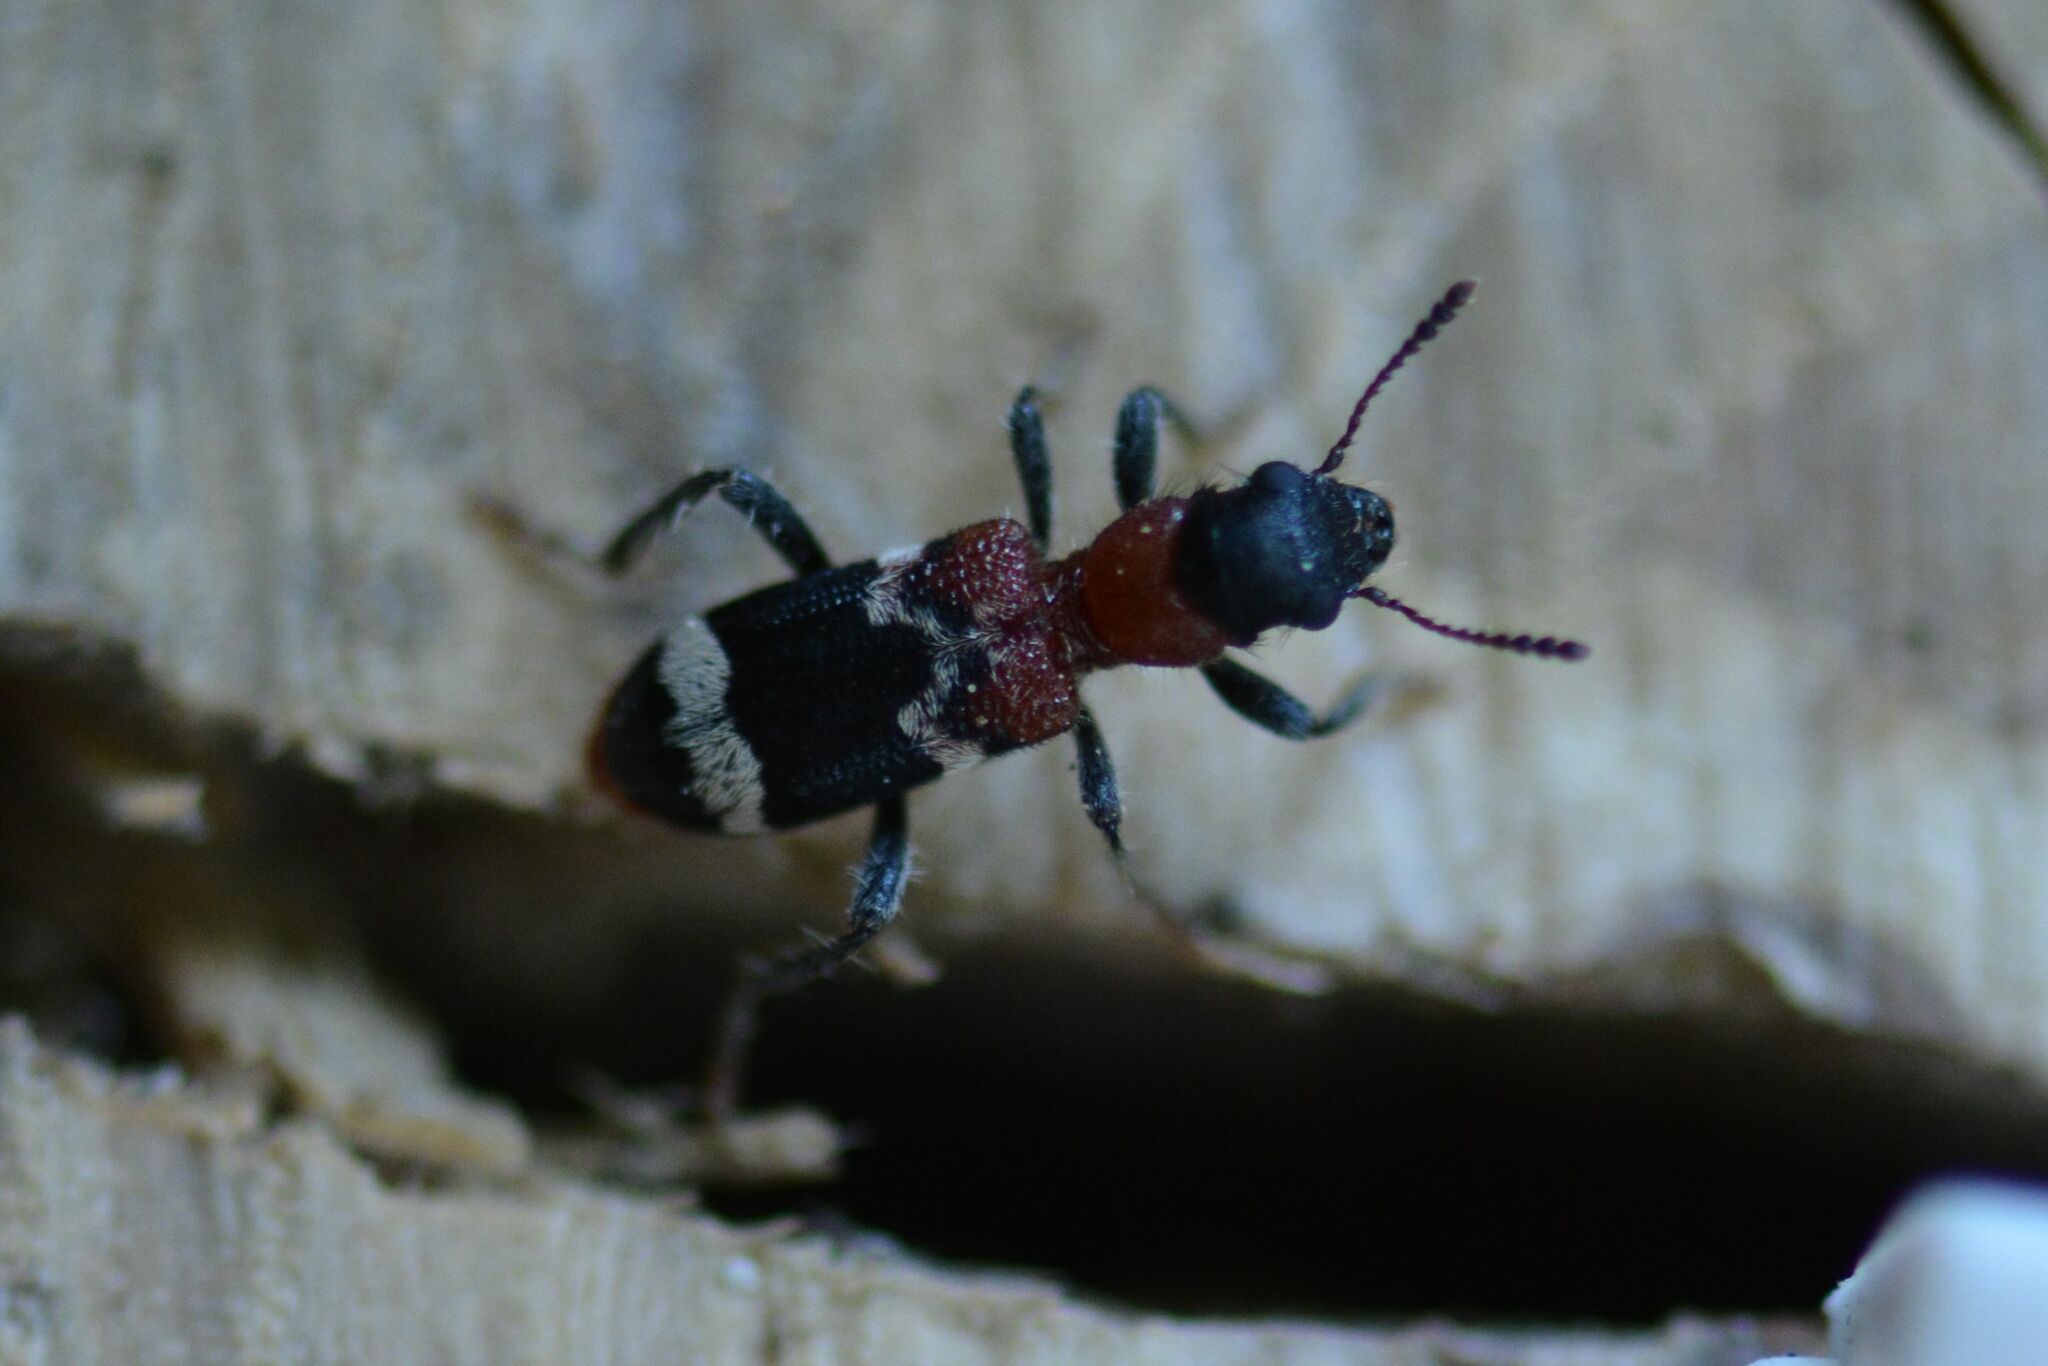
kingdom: Animalia
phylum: Arthropoda
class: Insecta
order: Coleoptera
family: Cleridae
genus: Thanasimus
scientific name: Thanasimus formicarius
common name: Ant beetle
